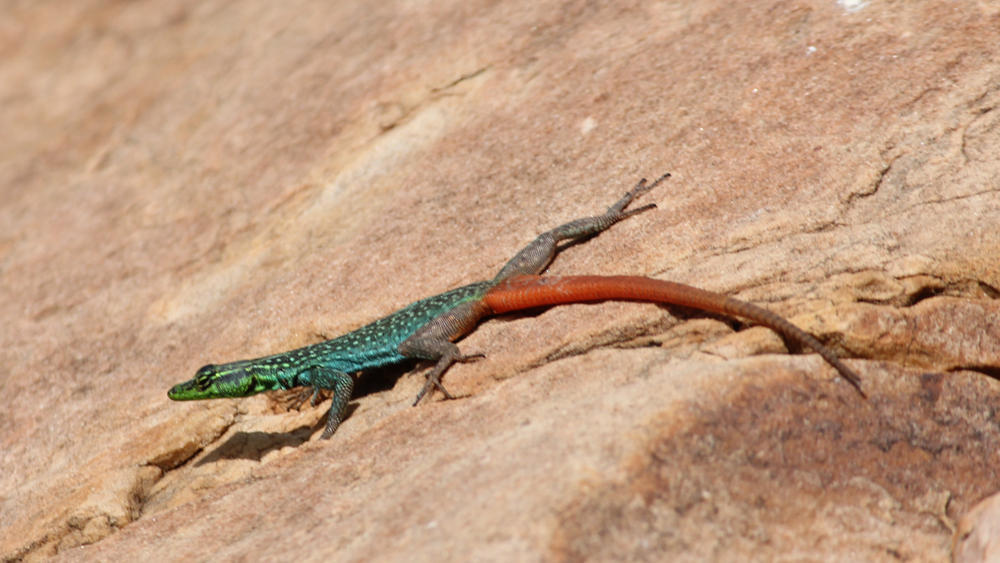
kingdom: Animalia
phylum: Chordata
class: Squamata
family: Cordylidae
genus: Platysaurus
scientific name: Platysaurus relictus
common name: Soutpansberg flat lizard
